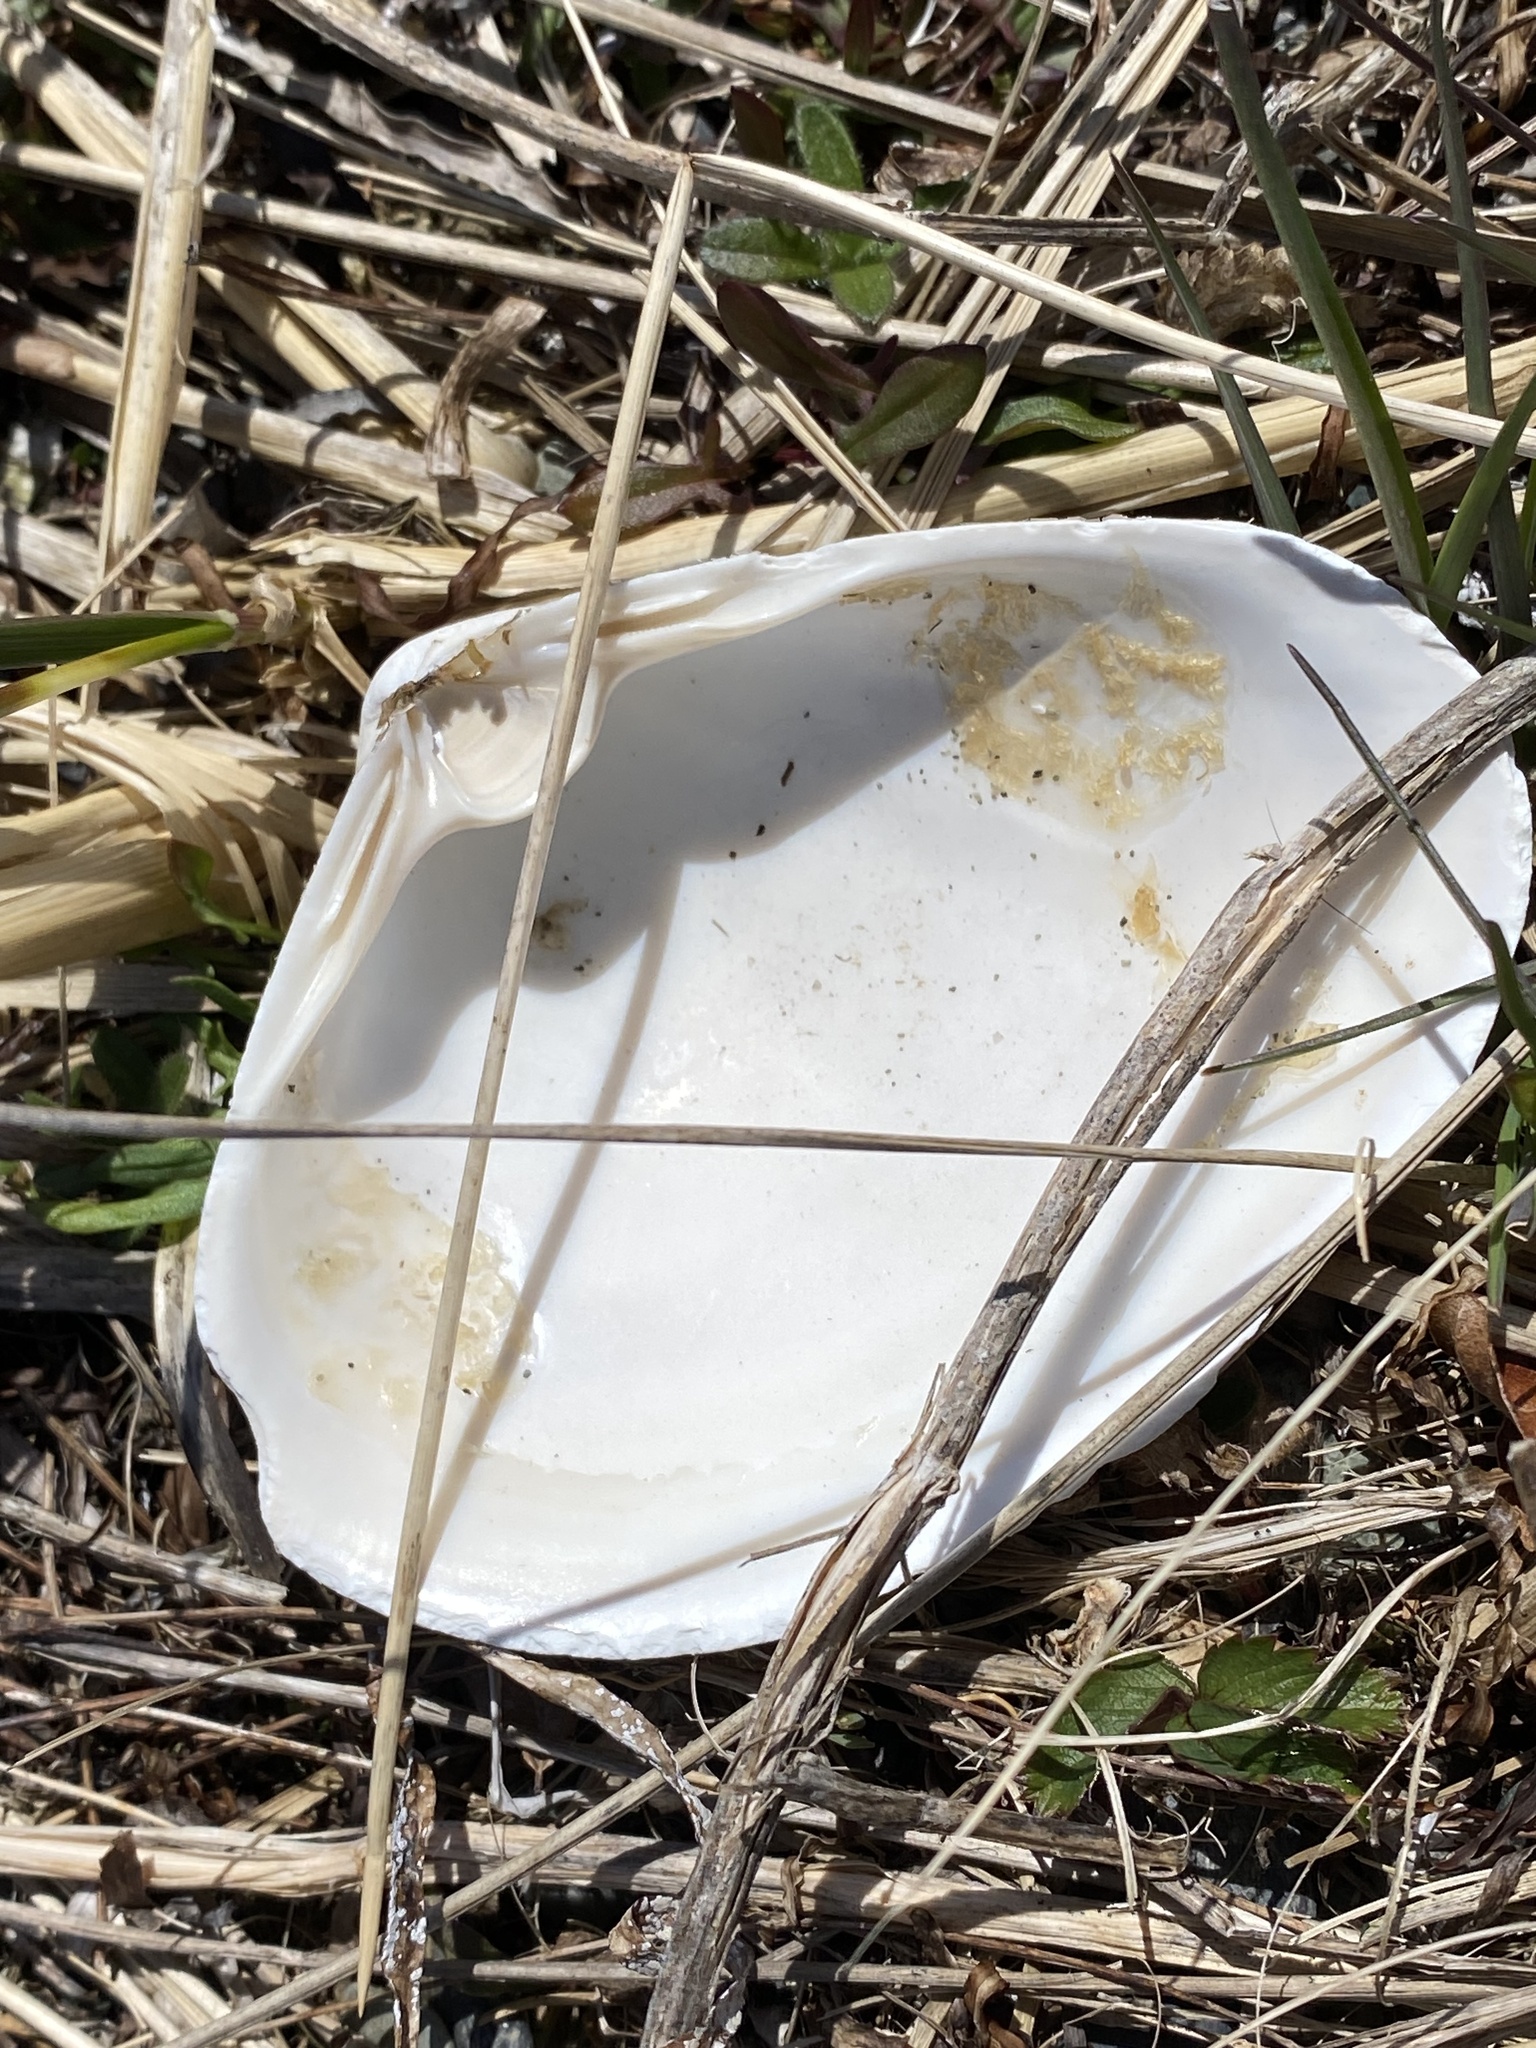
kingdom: Animalia
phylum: Mollusca
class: Bivalvia
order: Venerida
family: Mactridae
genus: Spisula
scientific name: Spisula solidissima
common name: Atlantic surf clam
